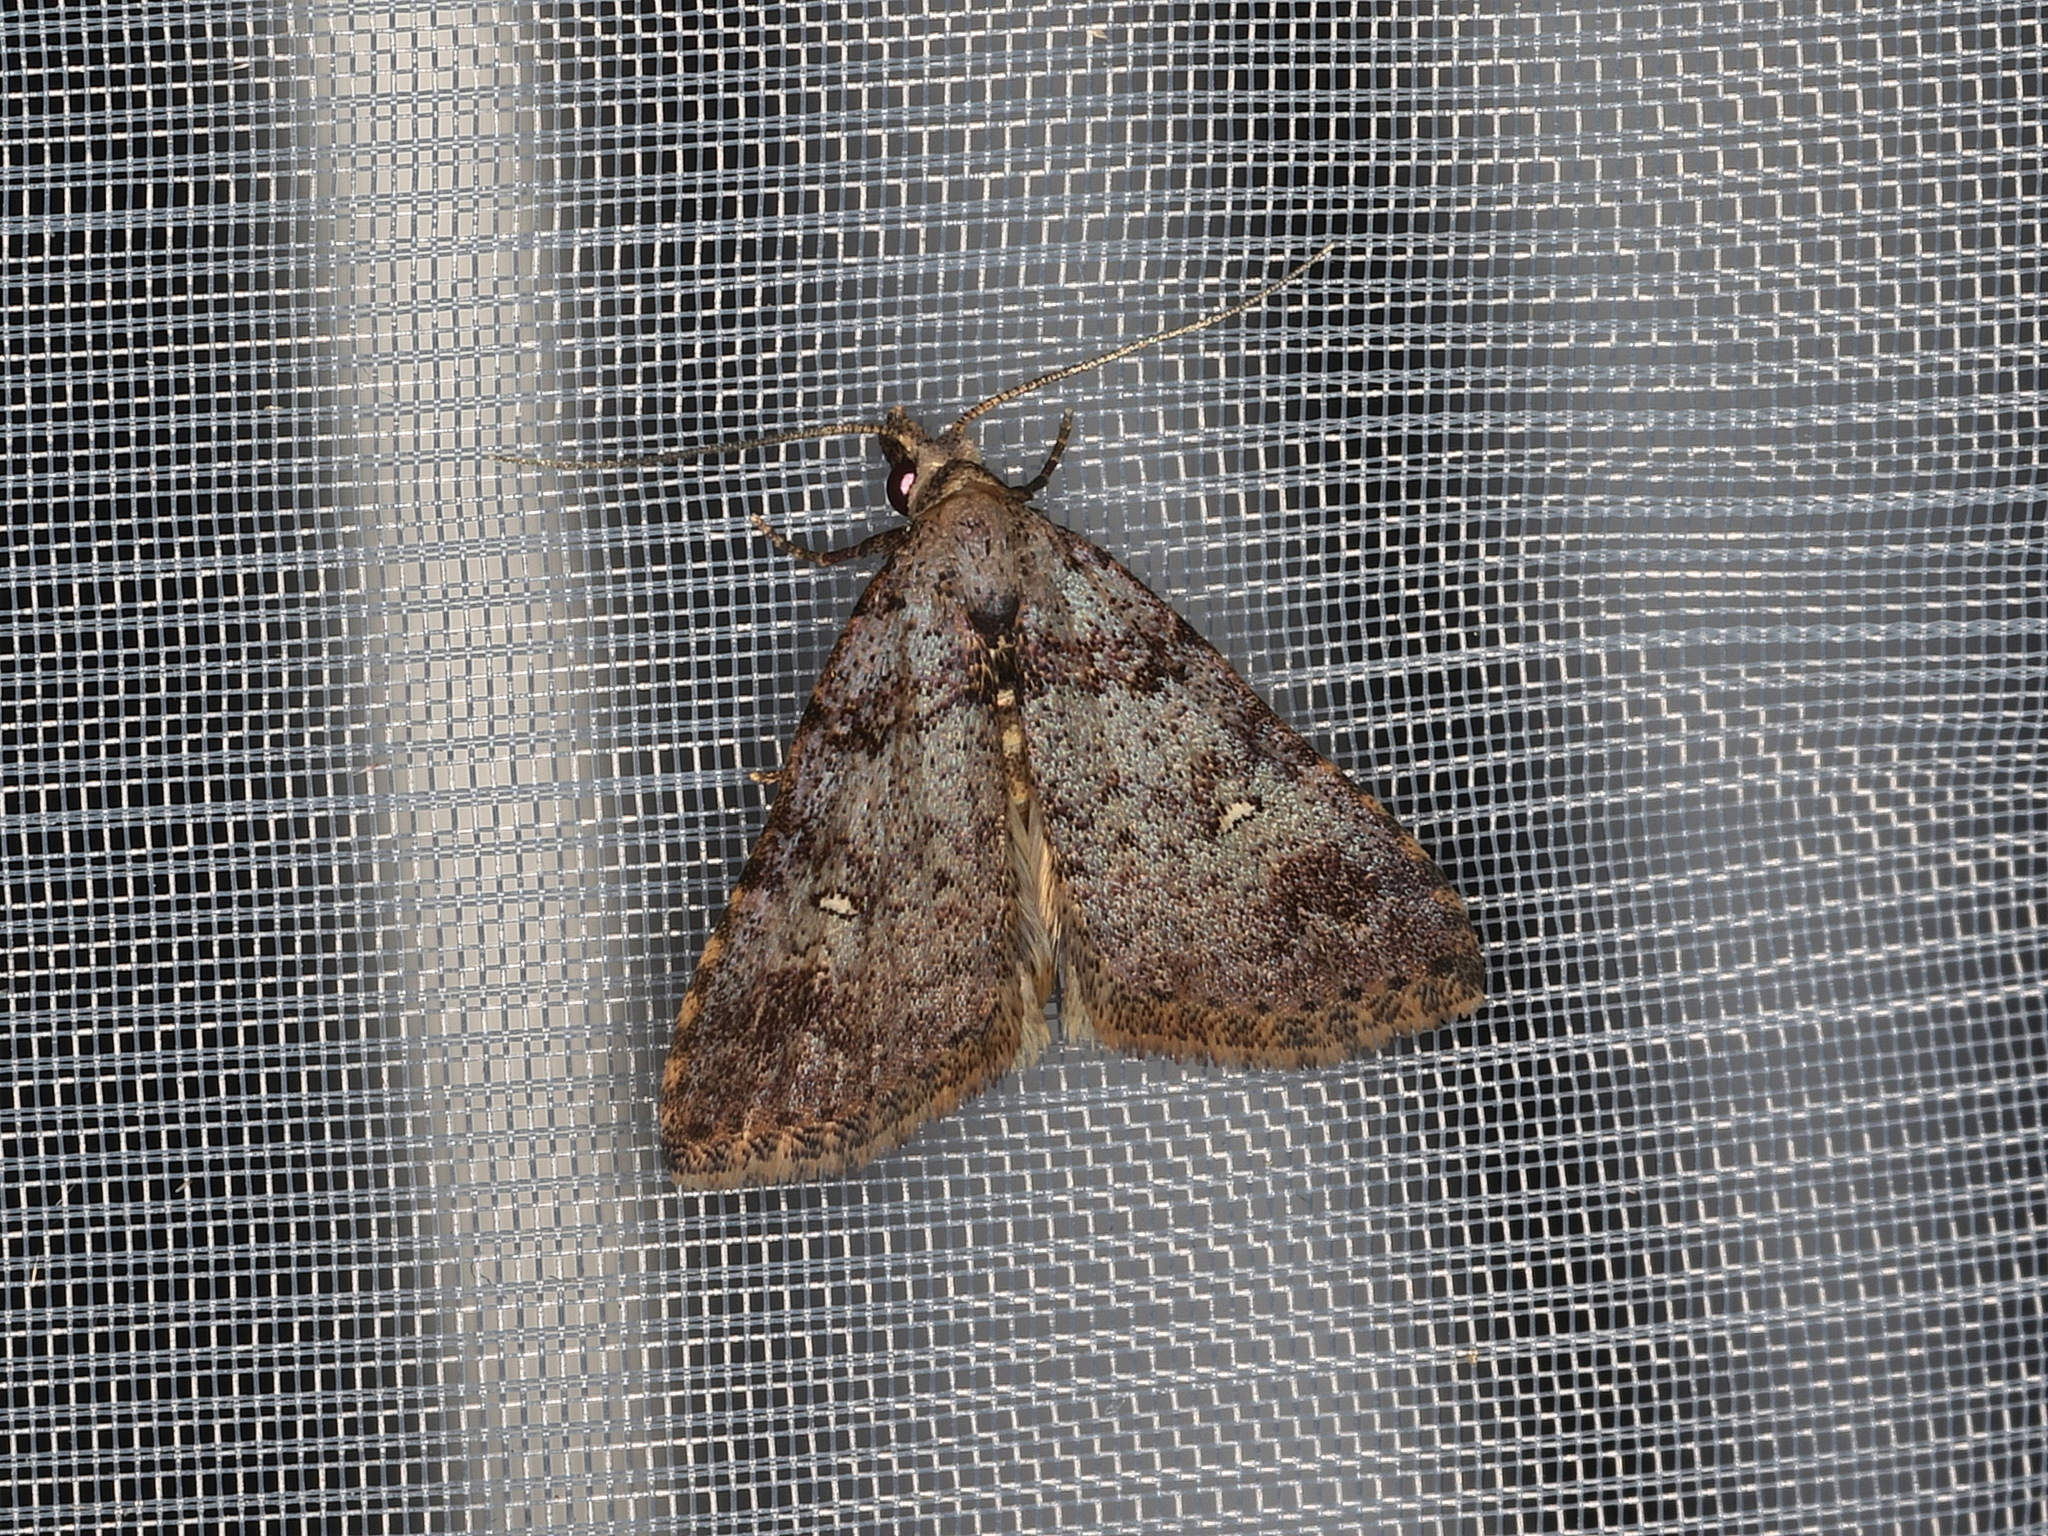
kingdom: Animalia
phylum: Arthropoda
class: Insecta
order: Lepidoptera
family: Erebidae
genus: Alapadna
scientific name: Alapadna pauropis
